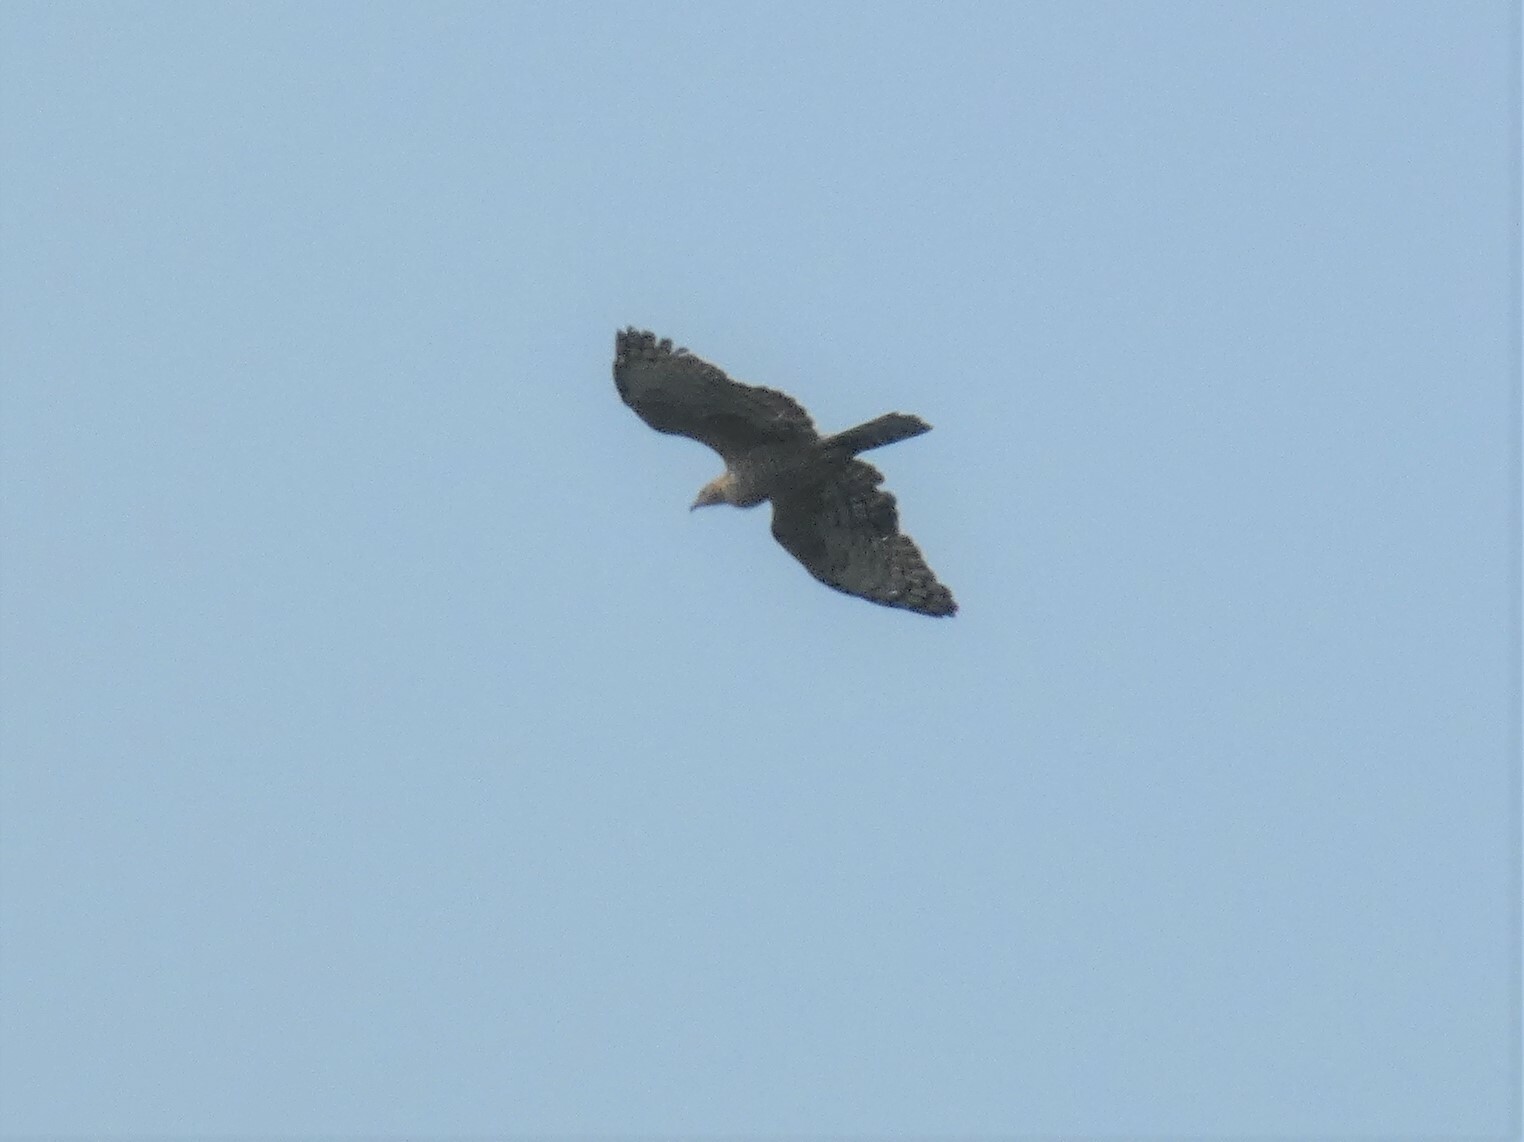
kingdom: Animalia
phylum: Chordata
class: Aves
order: Accipitriformes
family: Accipitridae
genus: Pernis
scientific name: Pernis ptilorhynchus
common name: Crested honey buzzard
